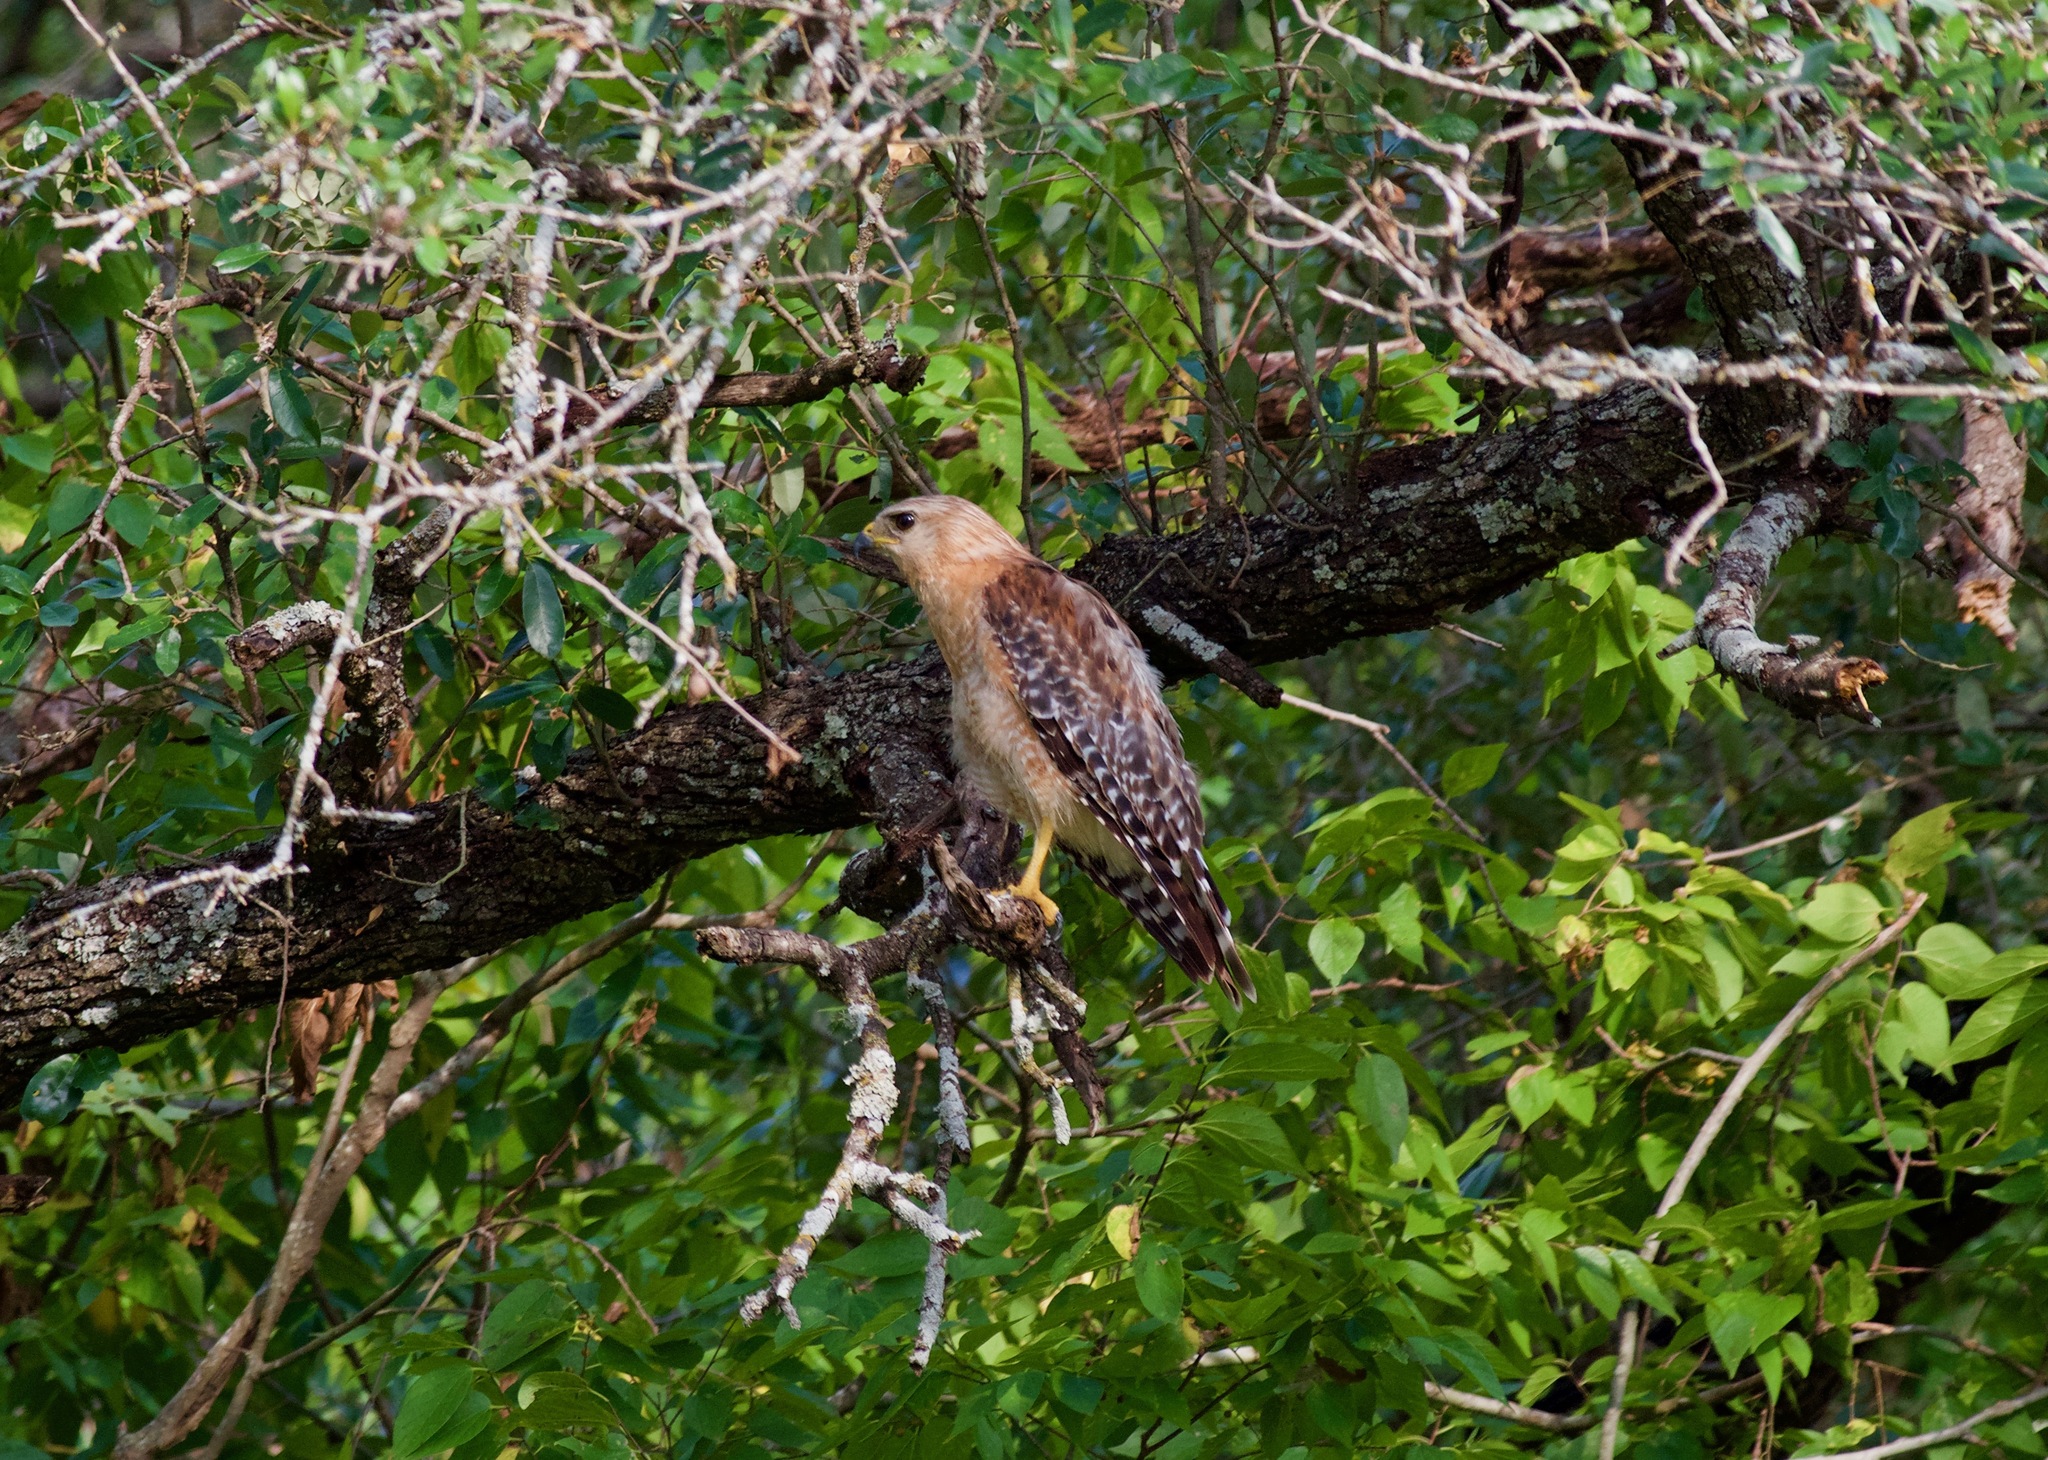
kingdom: Animalia
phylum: Chordata
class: Aves
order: Accipitriformes
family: Accipitridae
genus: Buteo
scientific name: Buteo lineatus
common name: Red-shouldered hawk
